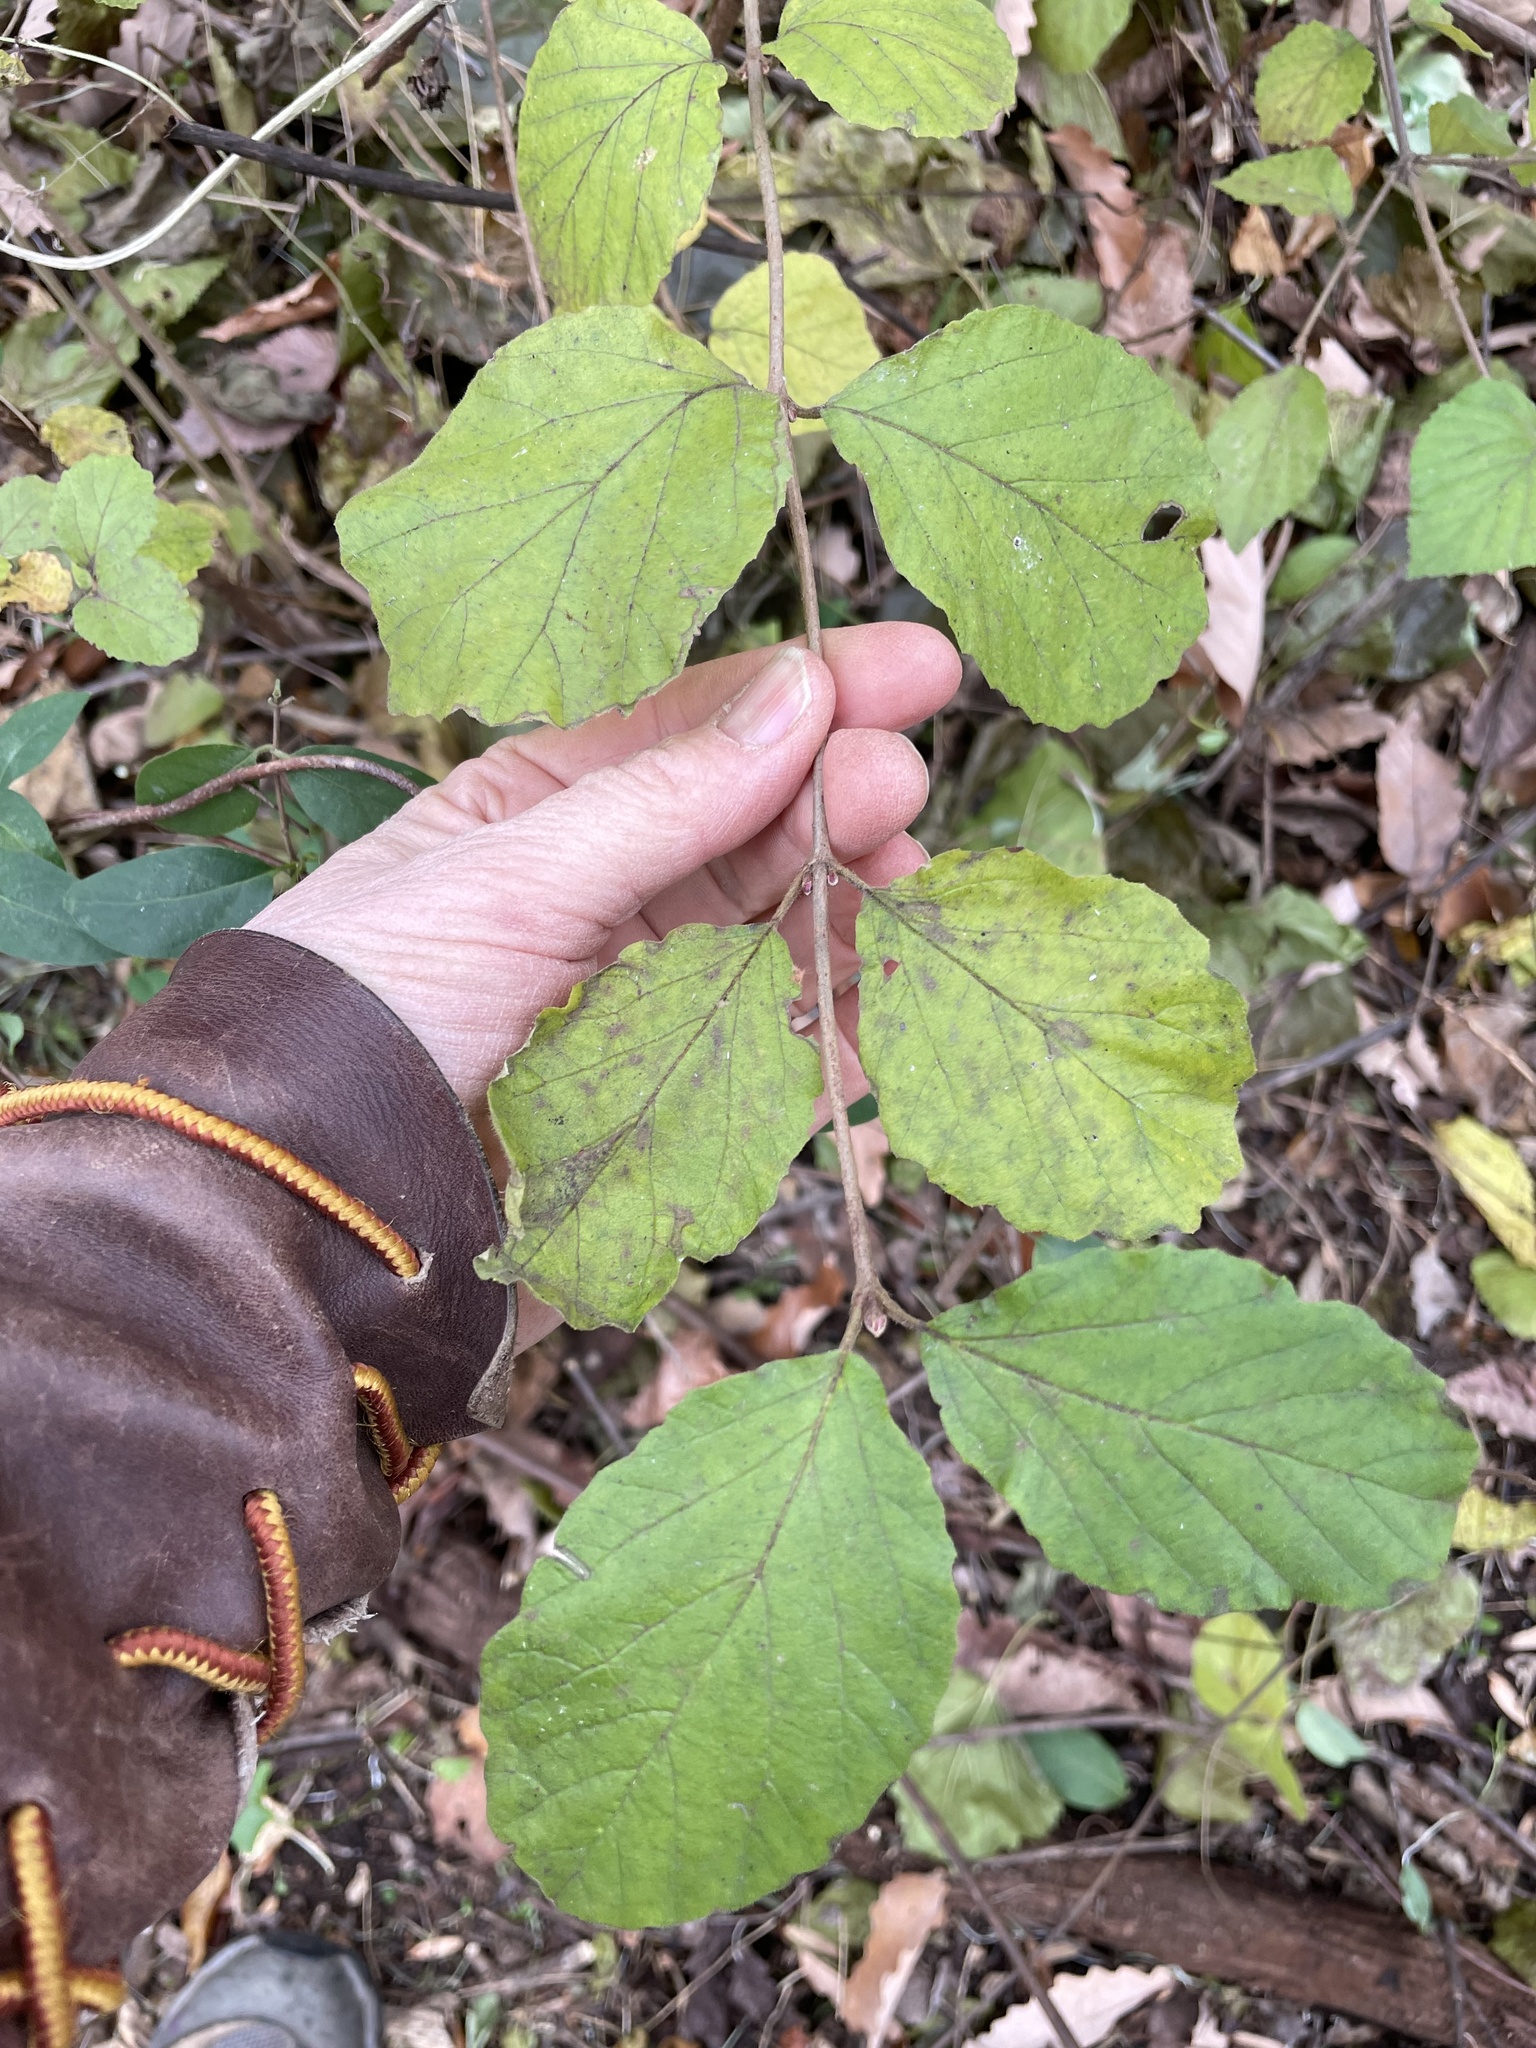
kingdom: Plantae
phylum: Tracheophyta
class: Magnoliopsida
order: Dipsacales
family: Viburnaceae
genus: Viburnum
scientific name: Viburnum dilatatum
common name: Linden arrowwood
